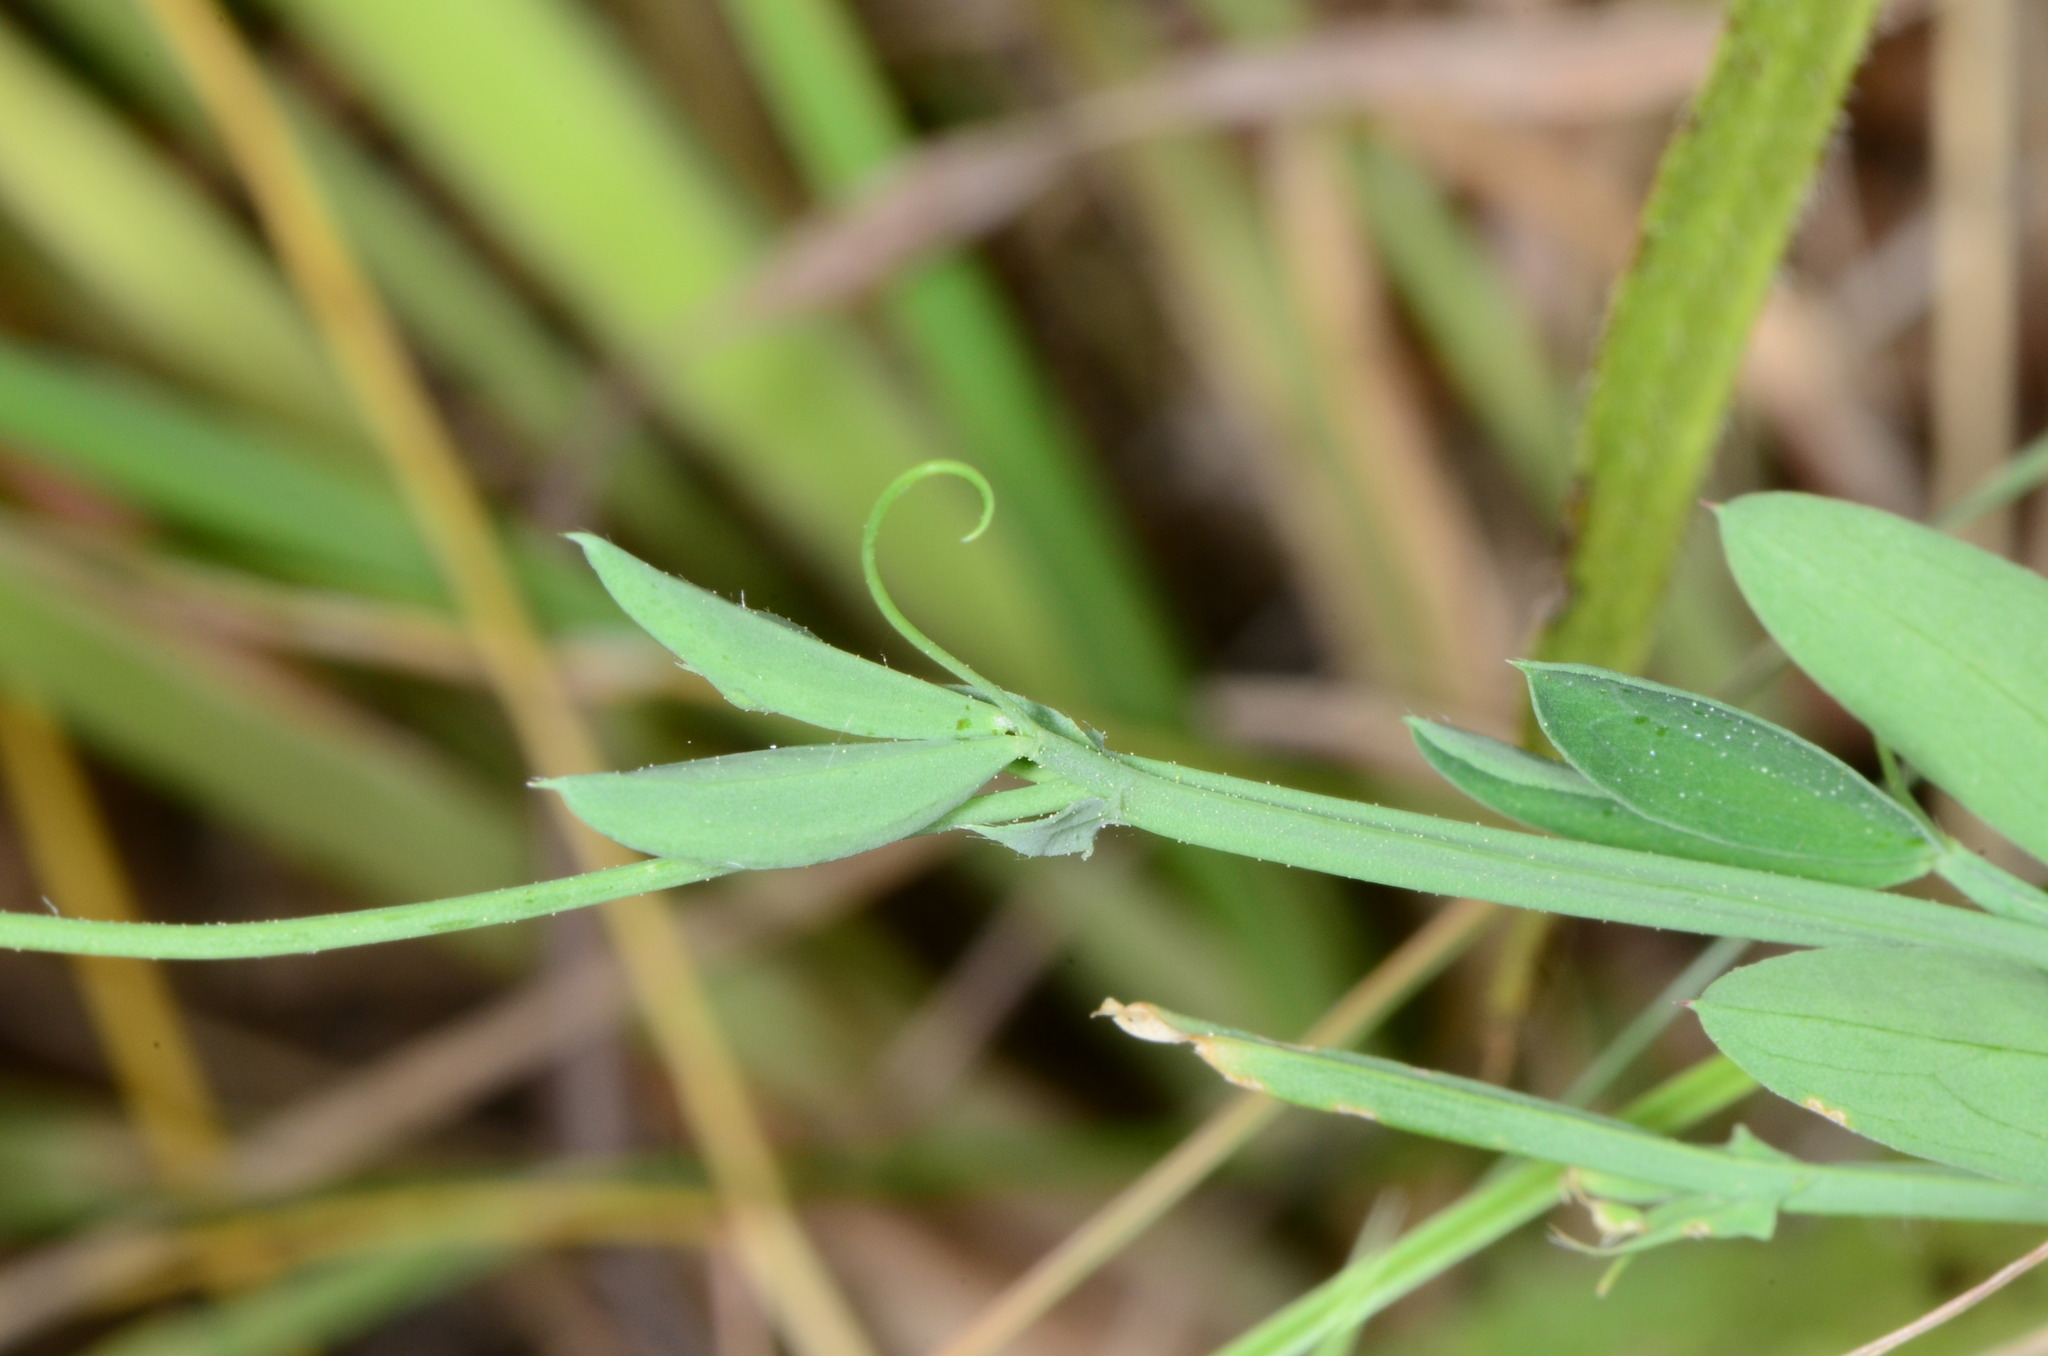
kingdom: Plantae
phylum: Tracheophyta
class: Magnoliopsida
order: Fabales
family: Fabaceae
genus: Lathyrus
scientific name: Lathyrus hirsutus
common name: Hairy vetchling
